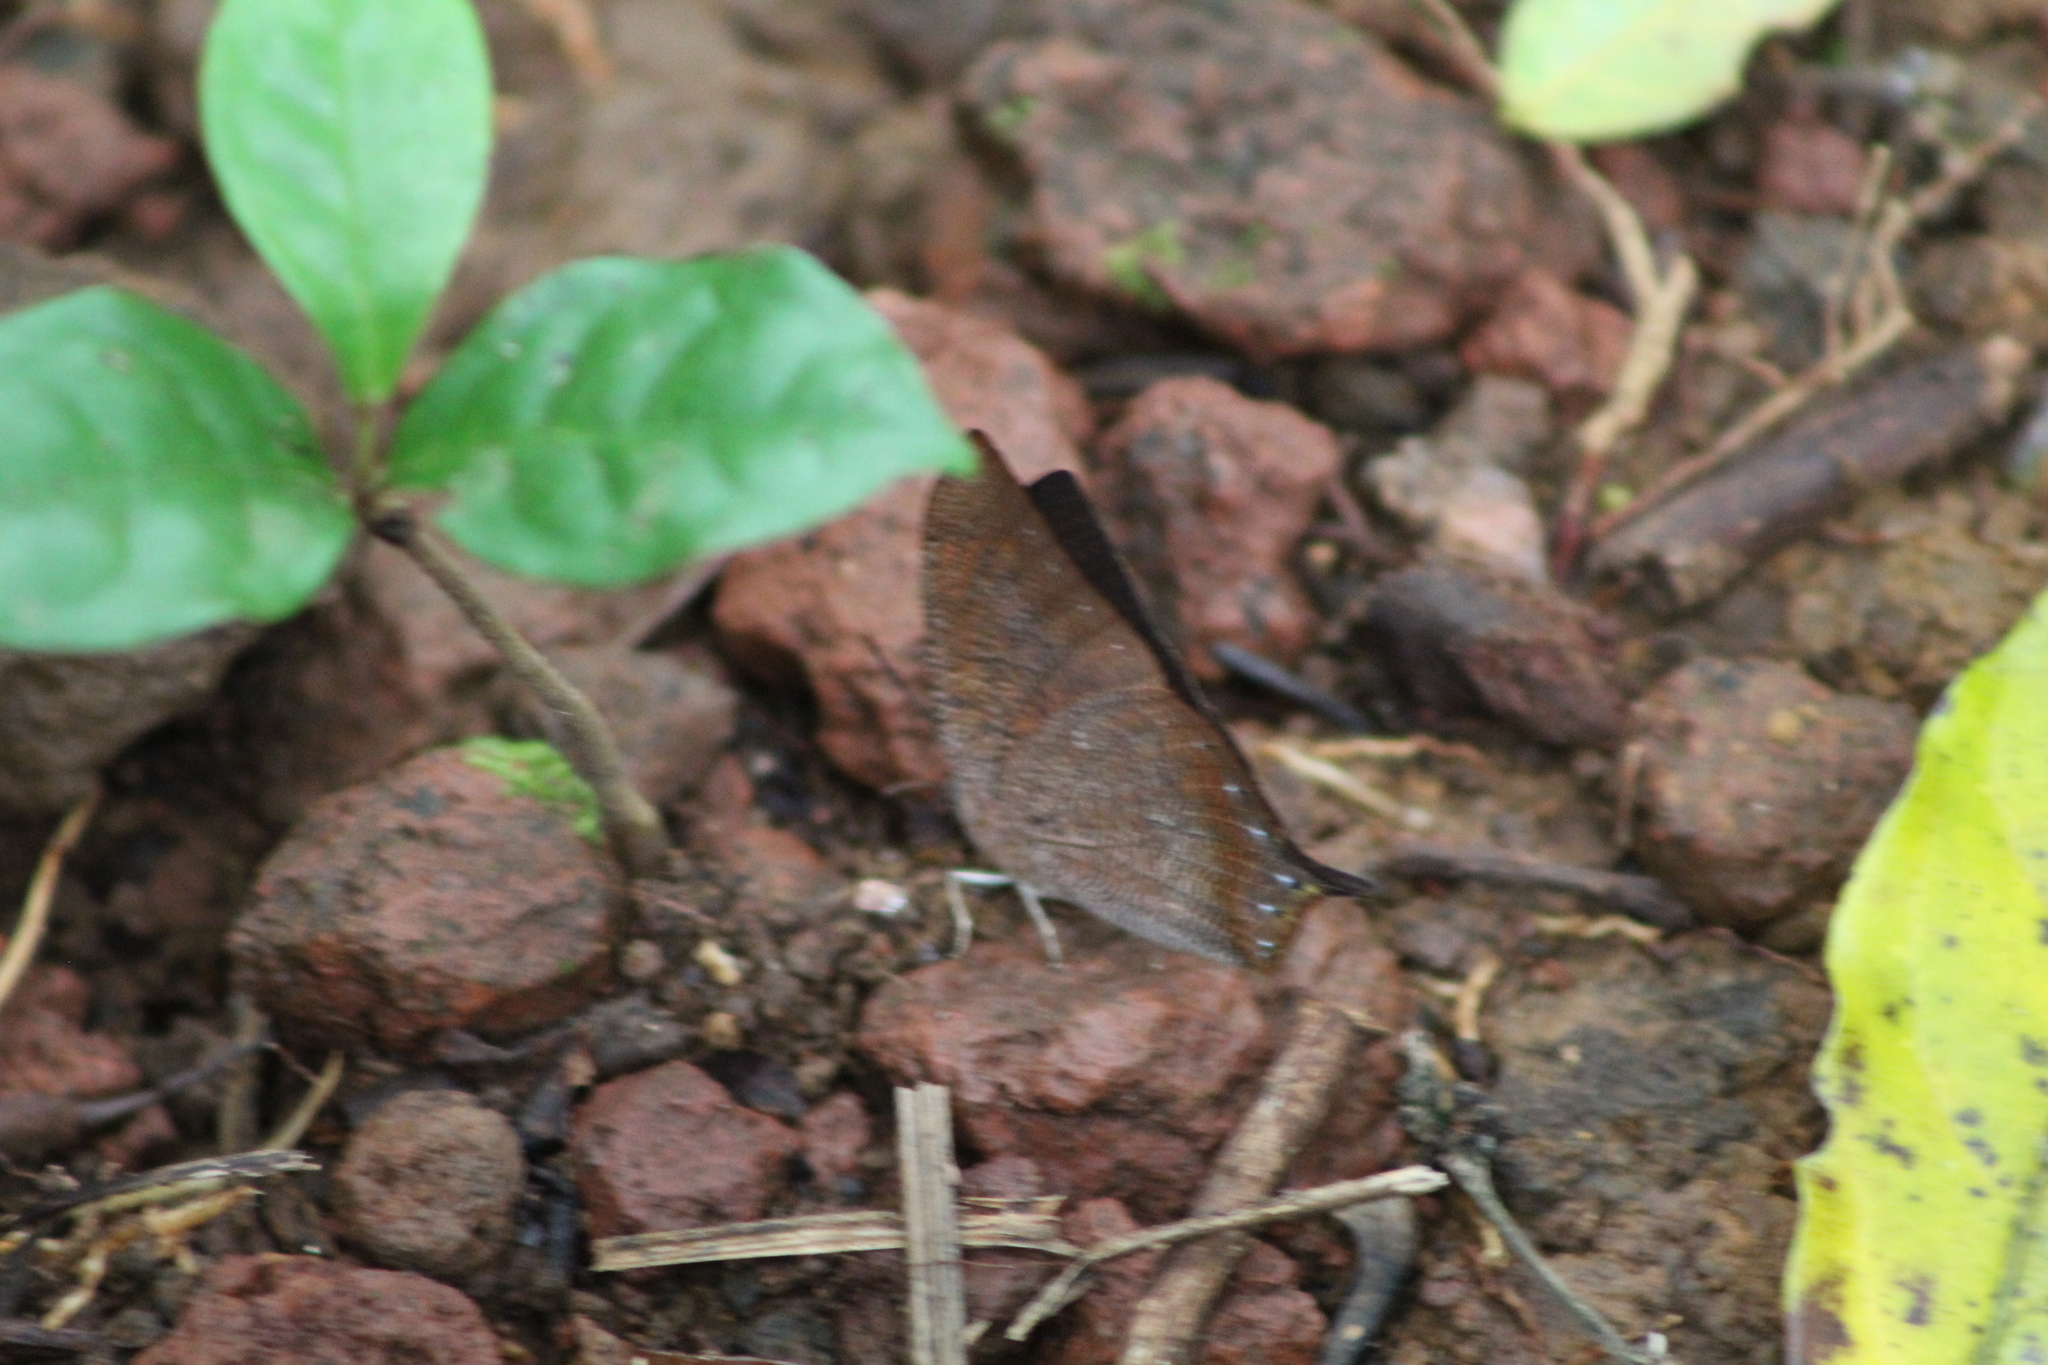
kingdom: Animalia
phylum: Arthropoda
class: Insecta
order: Lepidoptera
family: Nymphalidae
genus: Fountainea
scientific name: Fountainea
